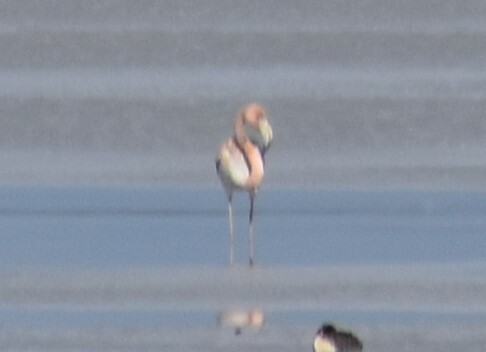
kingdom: Animalia
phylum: Chordata
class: Aves
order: Phoenicopteriformes
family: Phoenicopteridae
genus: Phoenicopterus
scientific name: Phoenicopterus ruber
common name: American flamingo
